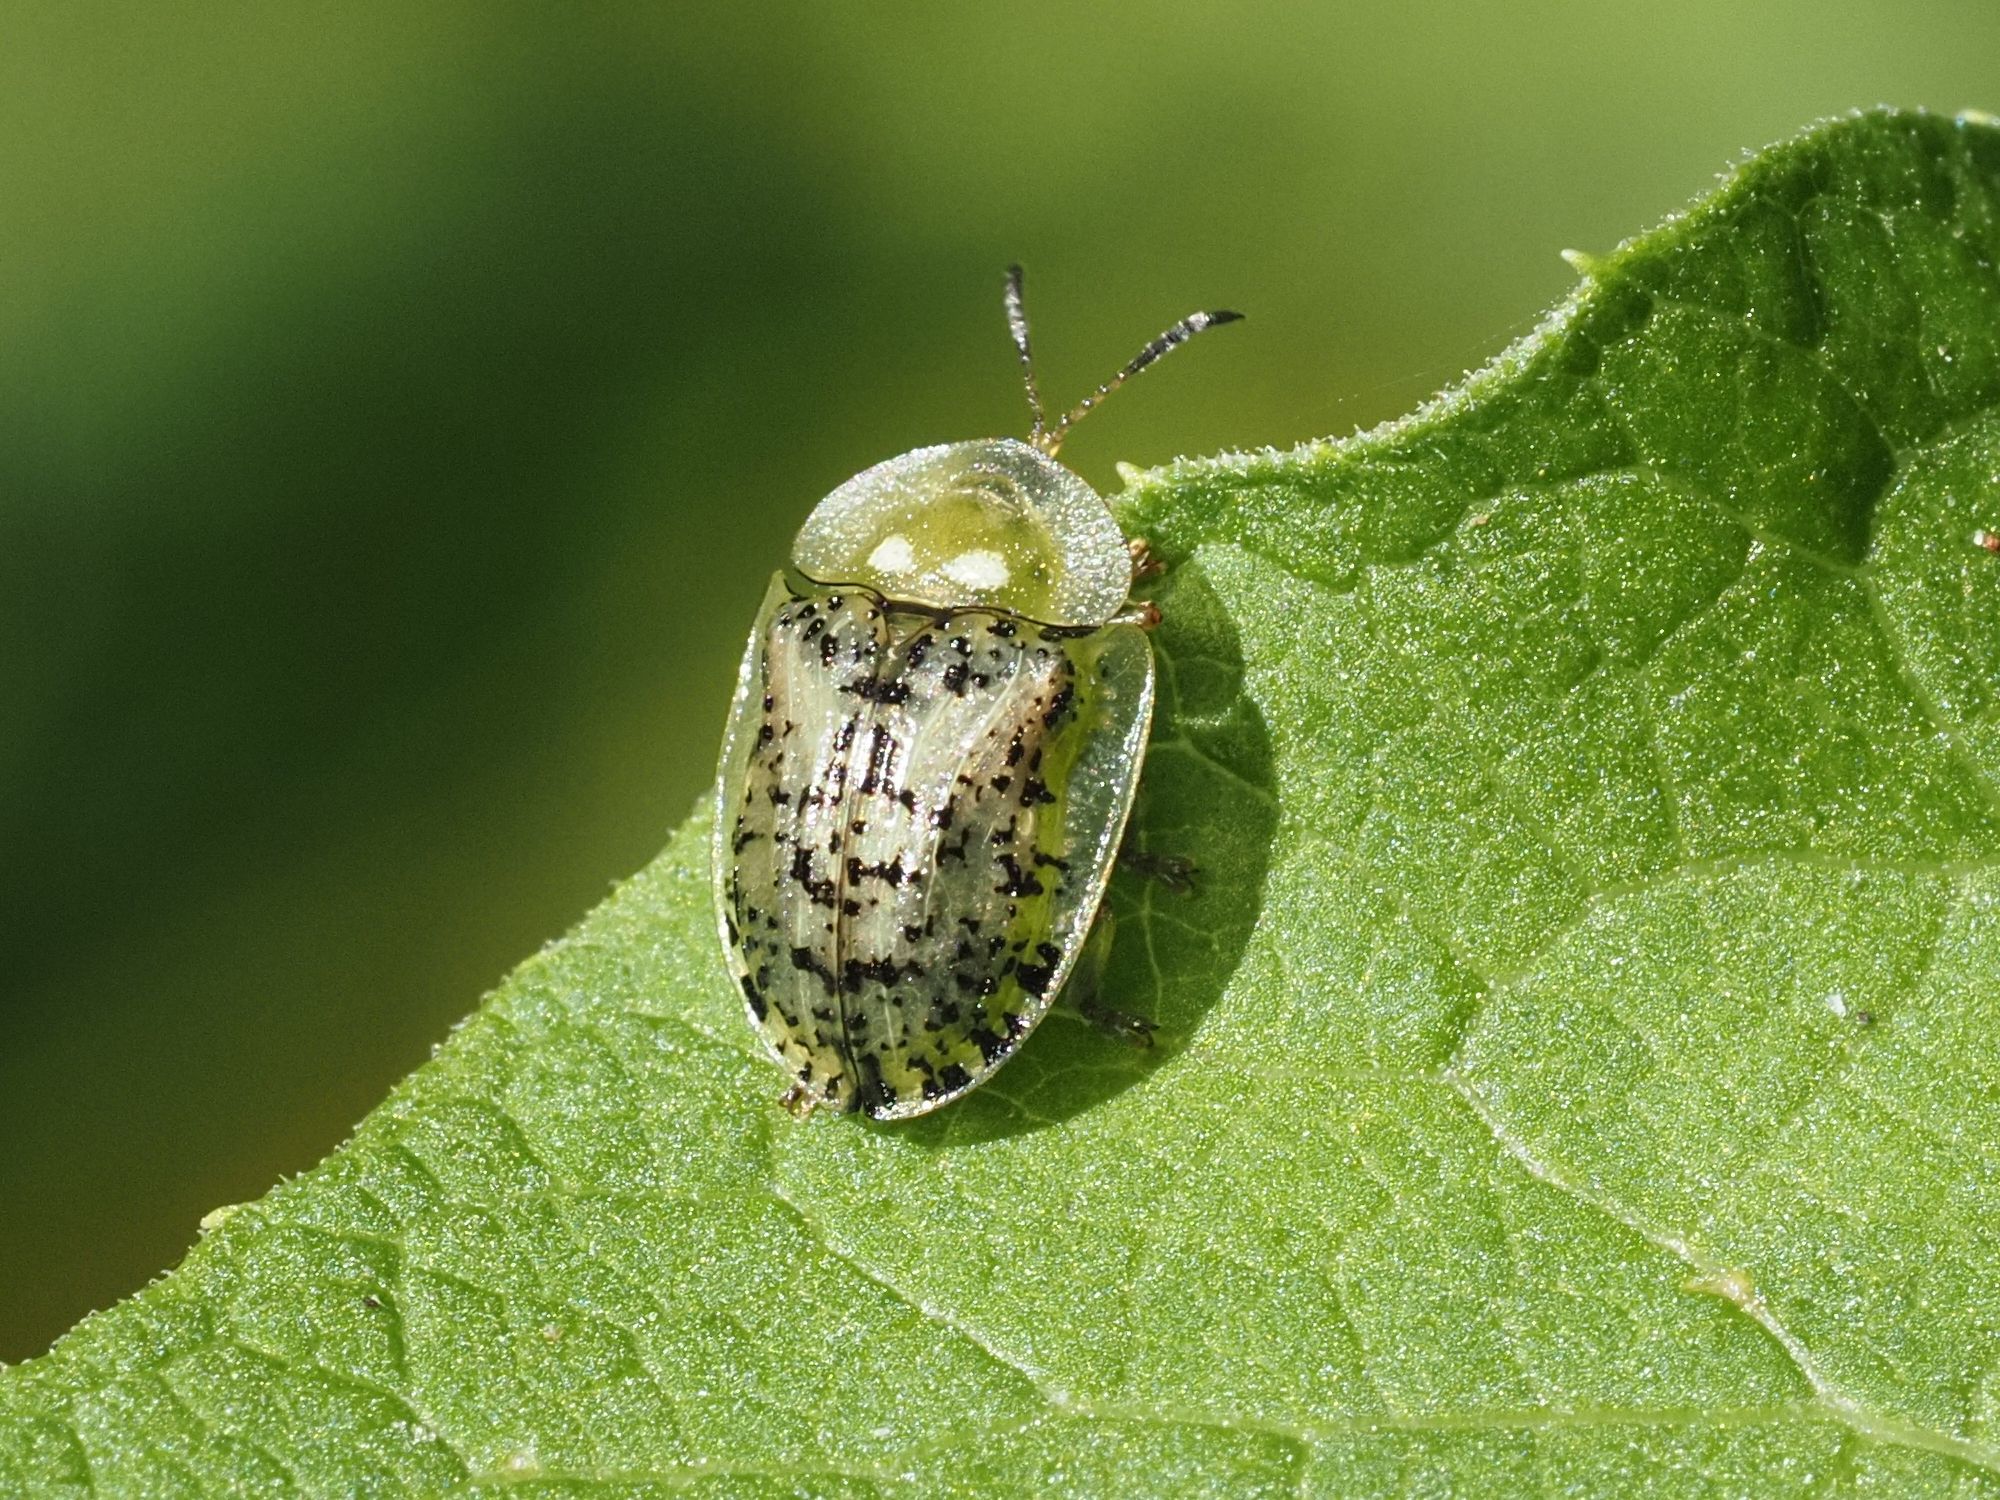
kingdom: Animalia
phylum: Arthropoda
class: Insecta
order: Coleoptera
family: Chrysomelidae
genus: Cassida
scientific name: Cassida nebulosa
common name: Beet tortoise beetle
